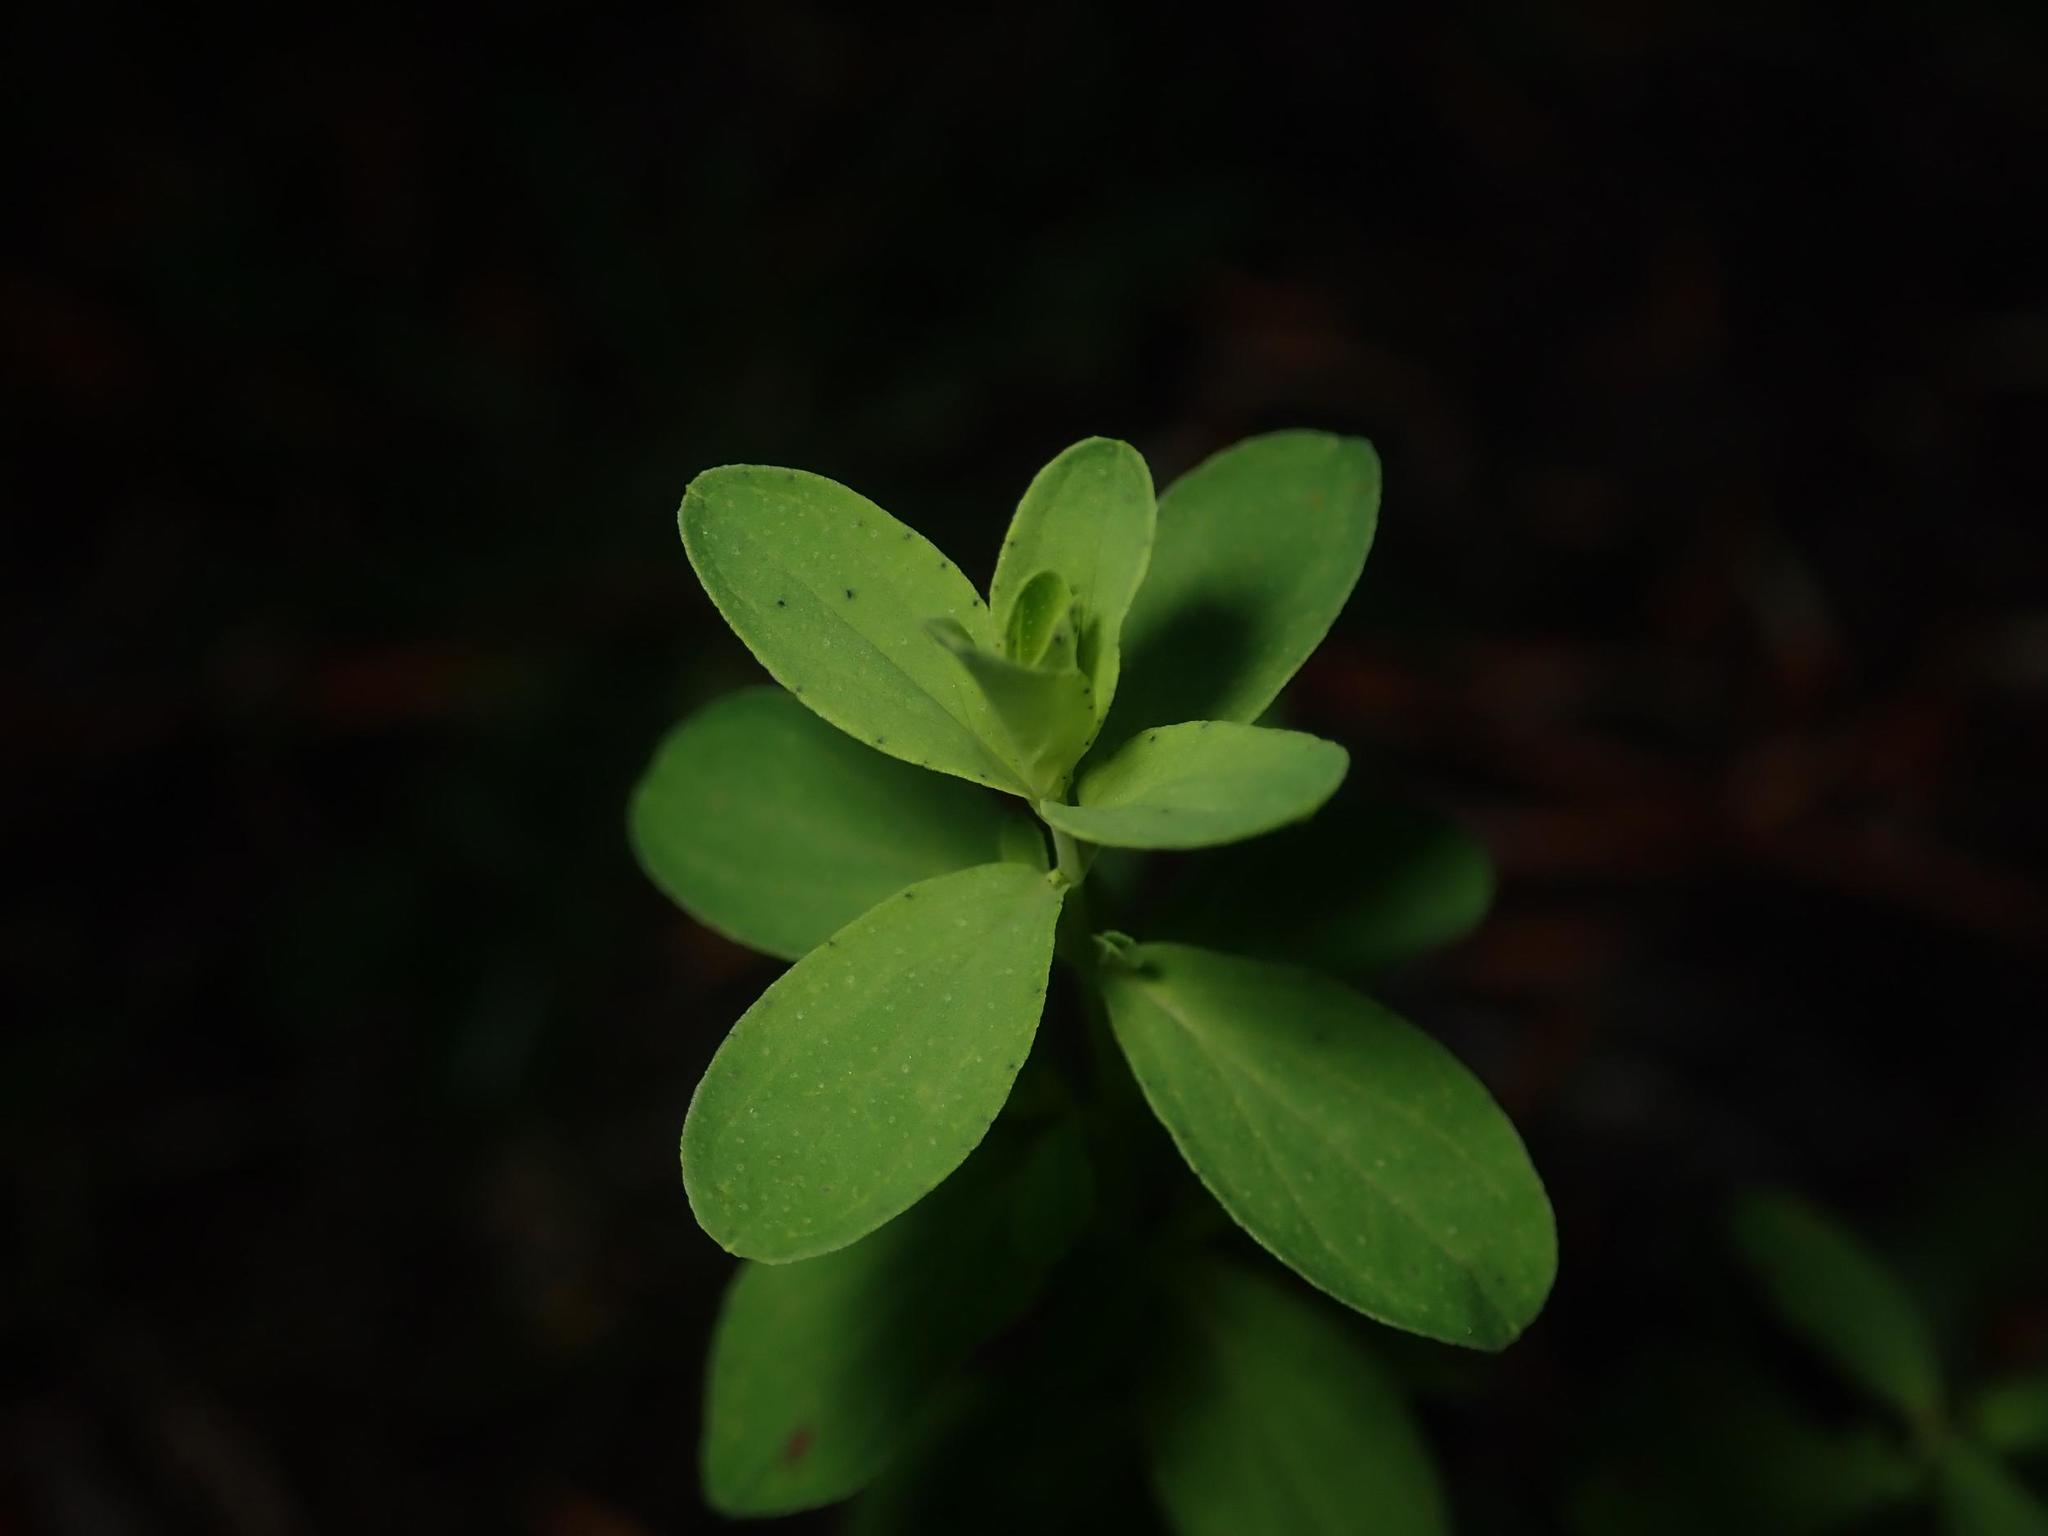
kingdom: Plantae
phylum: Tracheophyta
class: Magnoliopsida
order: Malpighiales
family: Hypericaceae
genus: Hypericum
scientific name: Hypericum perforatum
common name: Common st. johnswort
